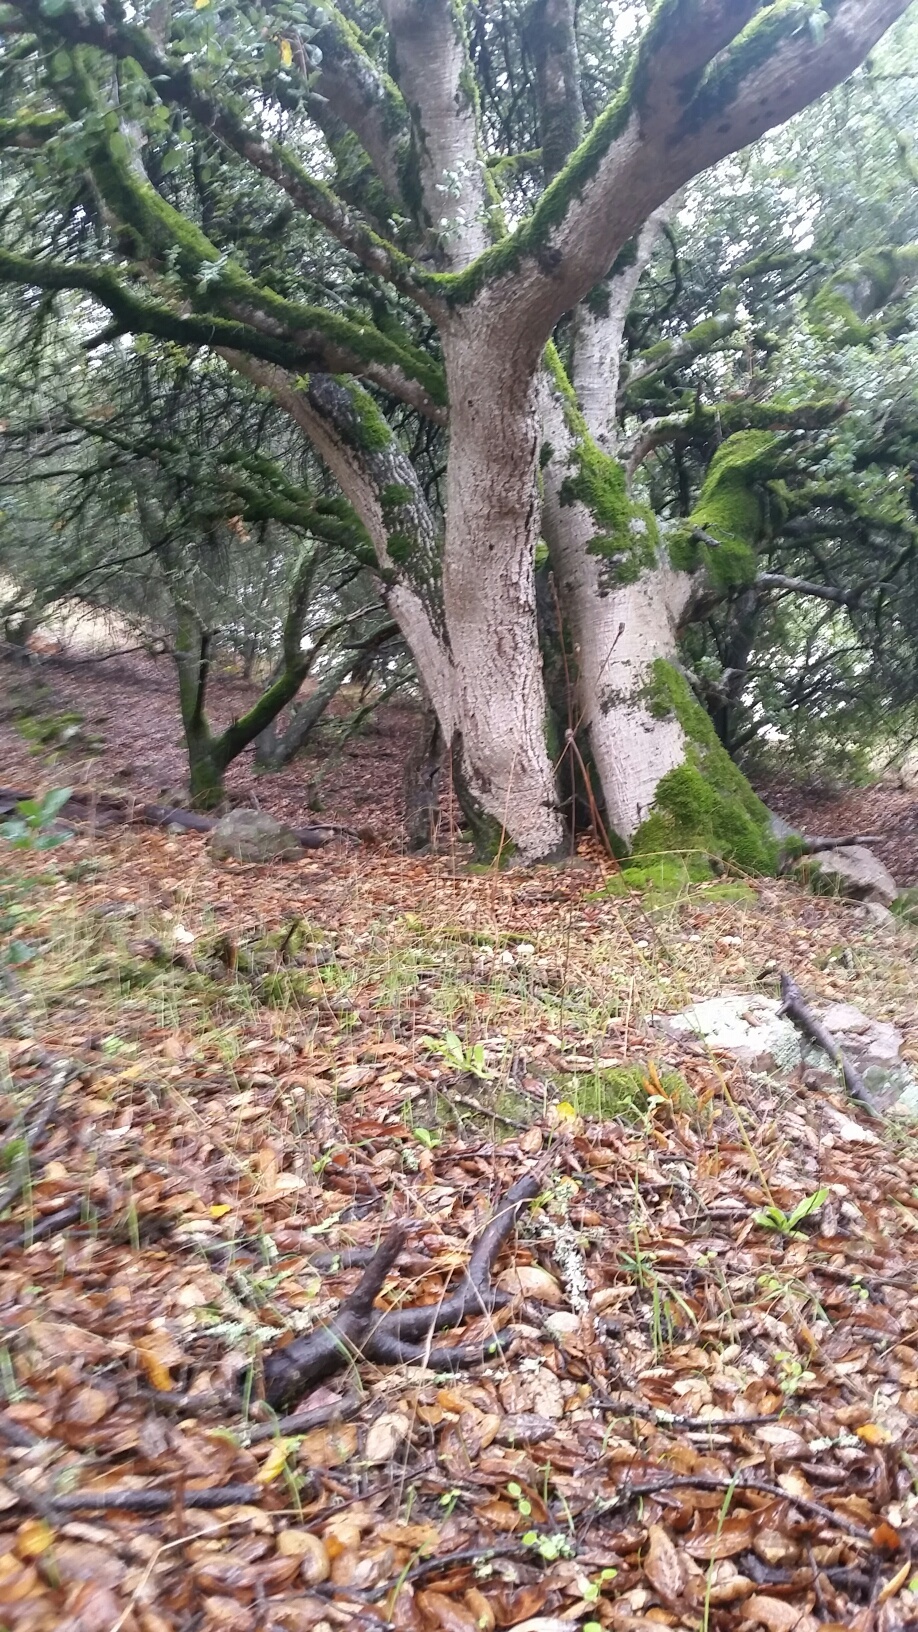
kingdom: Fungi
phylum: Basidiomycota
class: Agaricomycetes
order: Agaricales
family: Lycoperdaceae
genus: Lycoperdon
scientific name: Lycoperdon perlatum
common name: Common puffball
